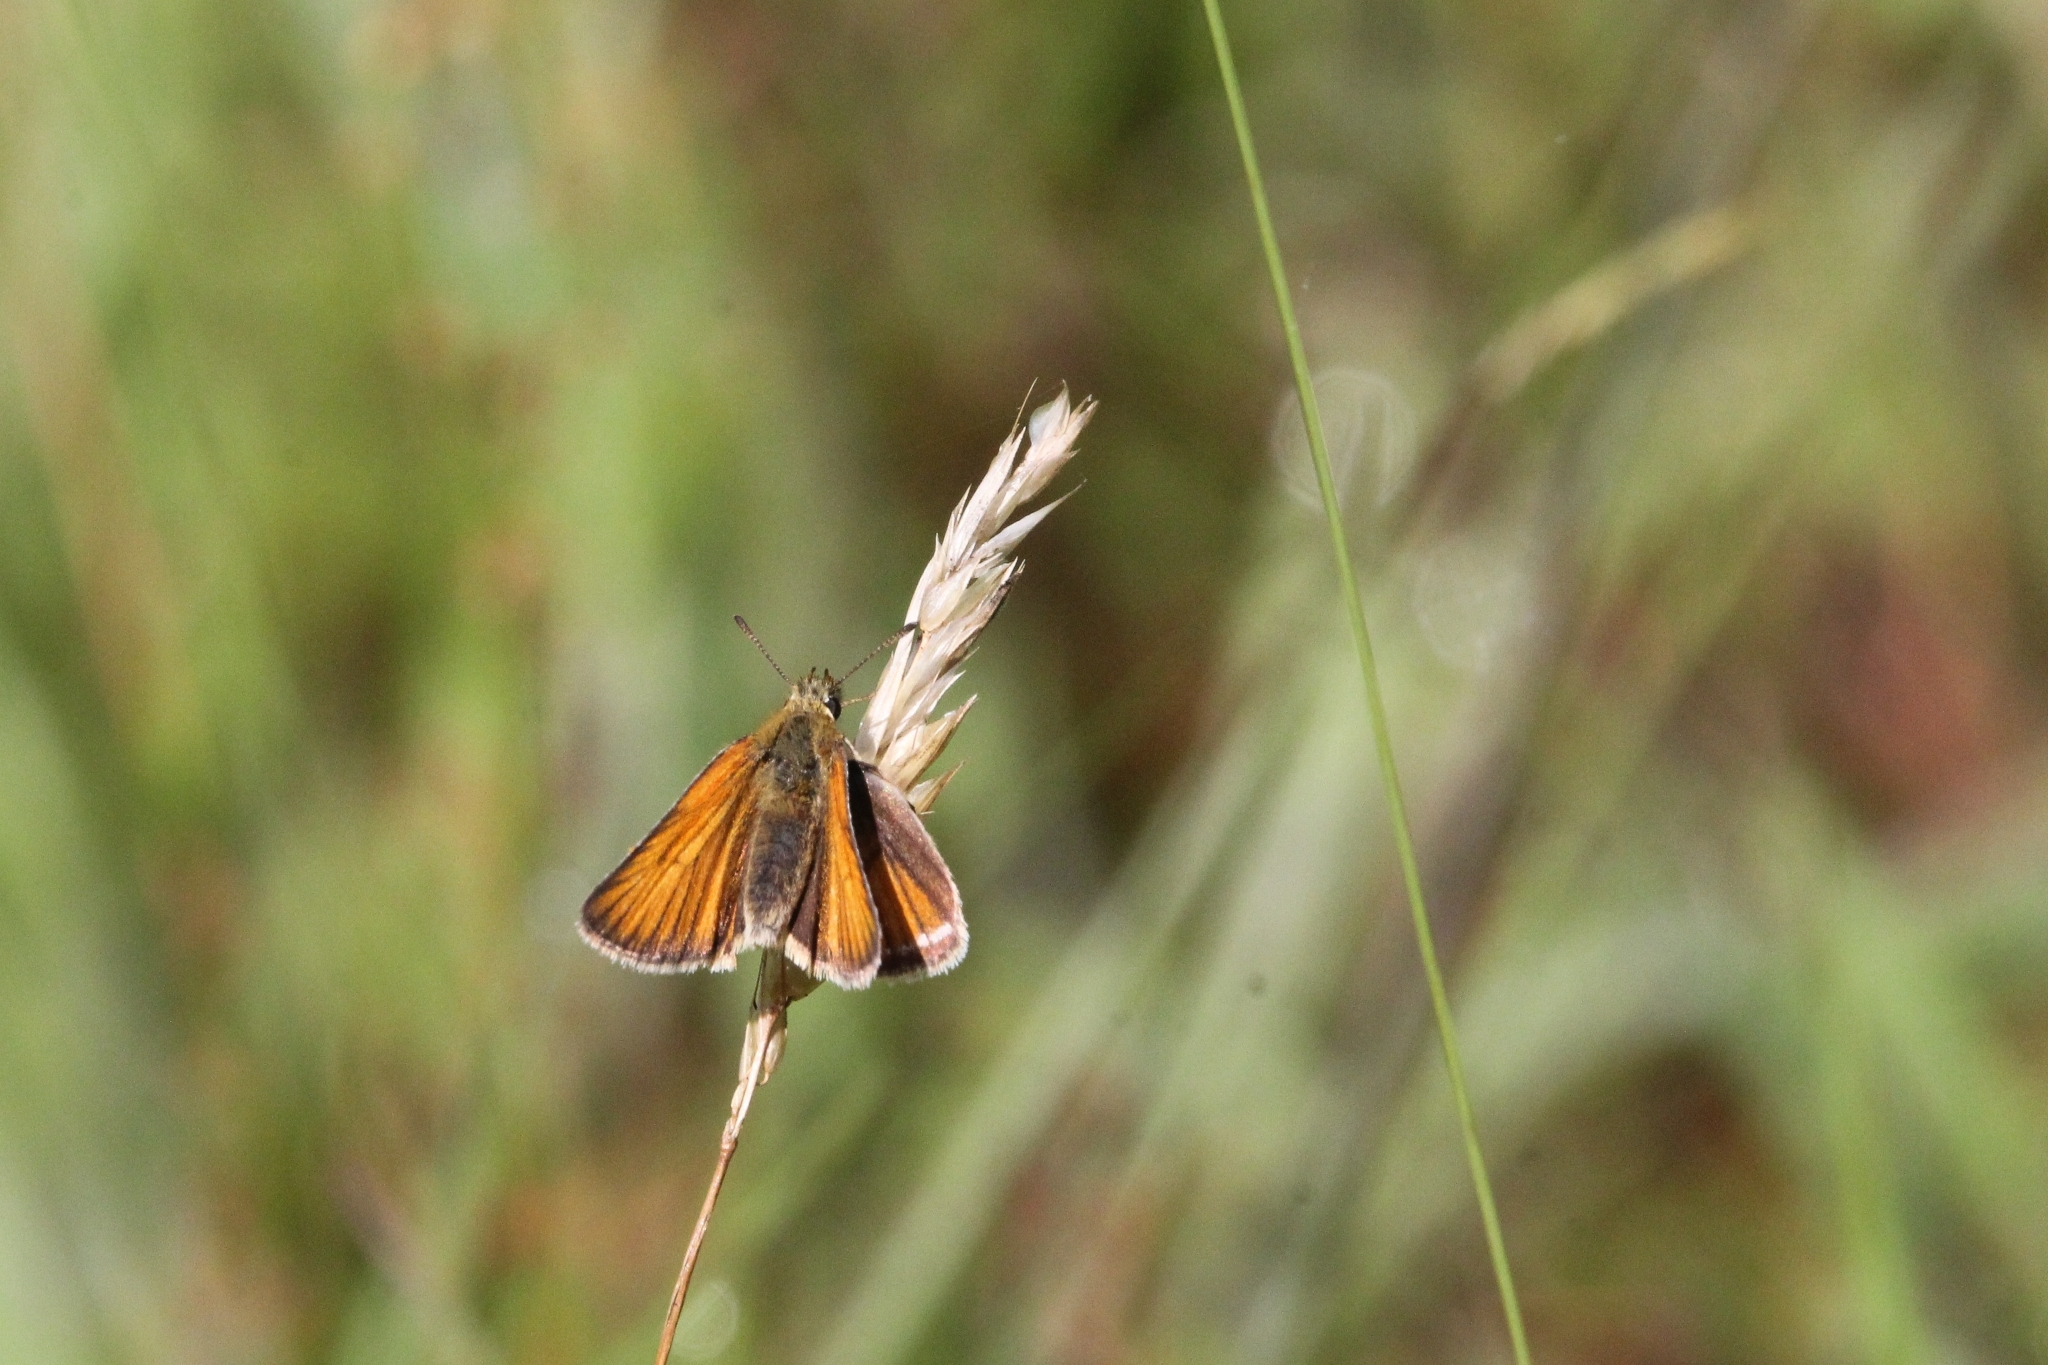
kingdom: Animalia
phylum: Arthropoda
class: Insecta
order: Lepidoptera
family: Hesperiidae
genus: Thymelicus
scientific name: Thymelicus lineola
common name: Essex skipper
